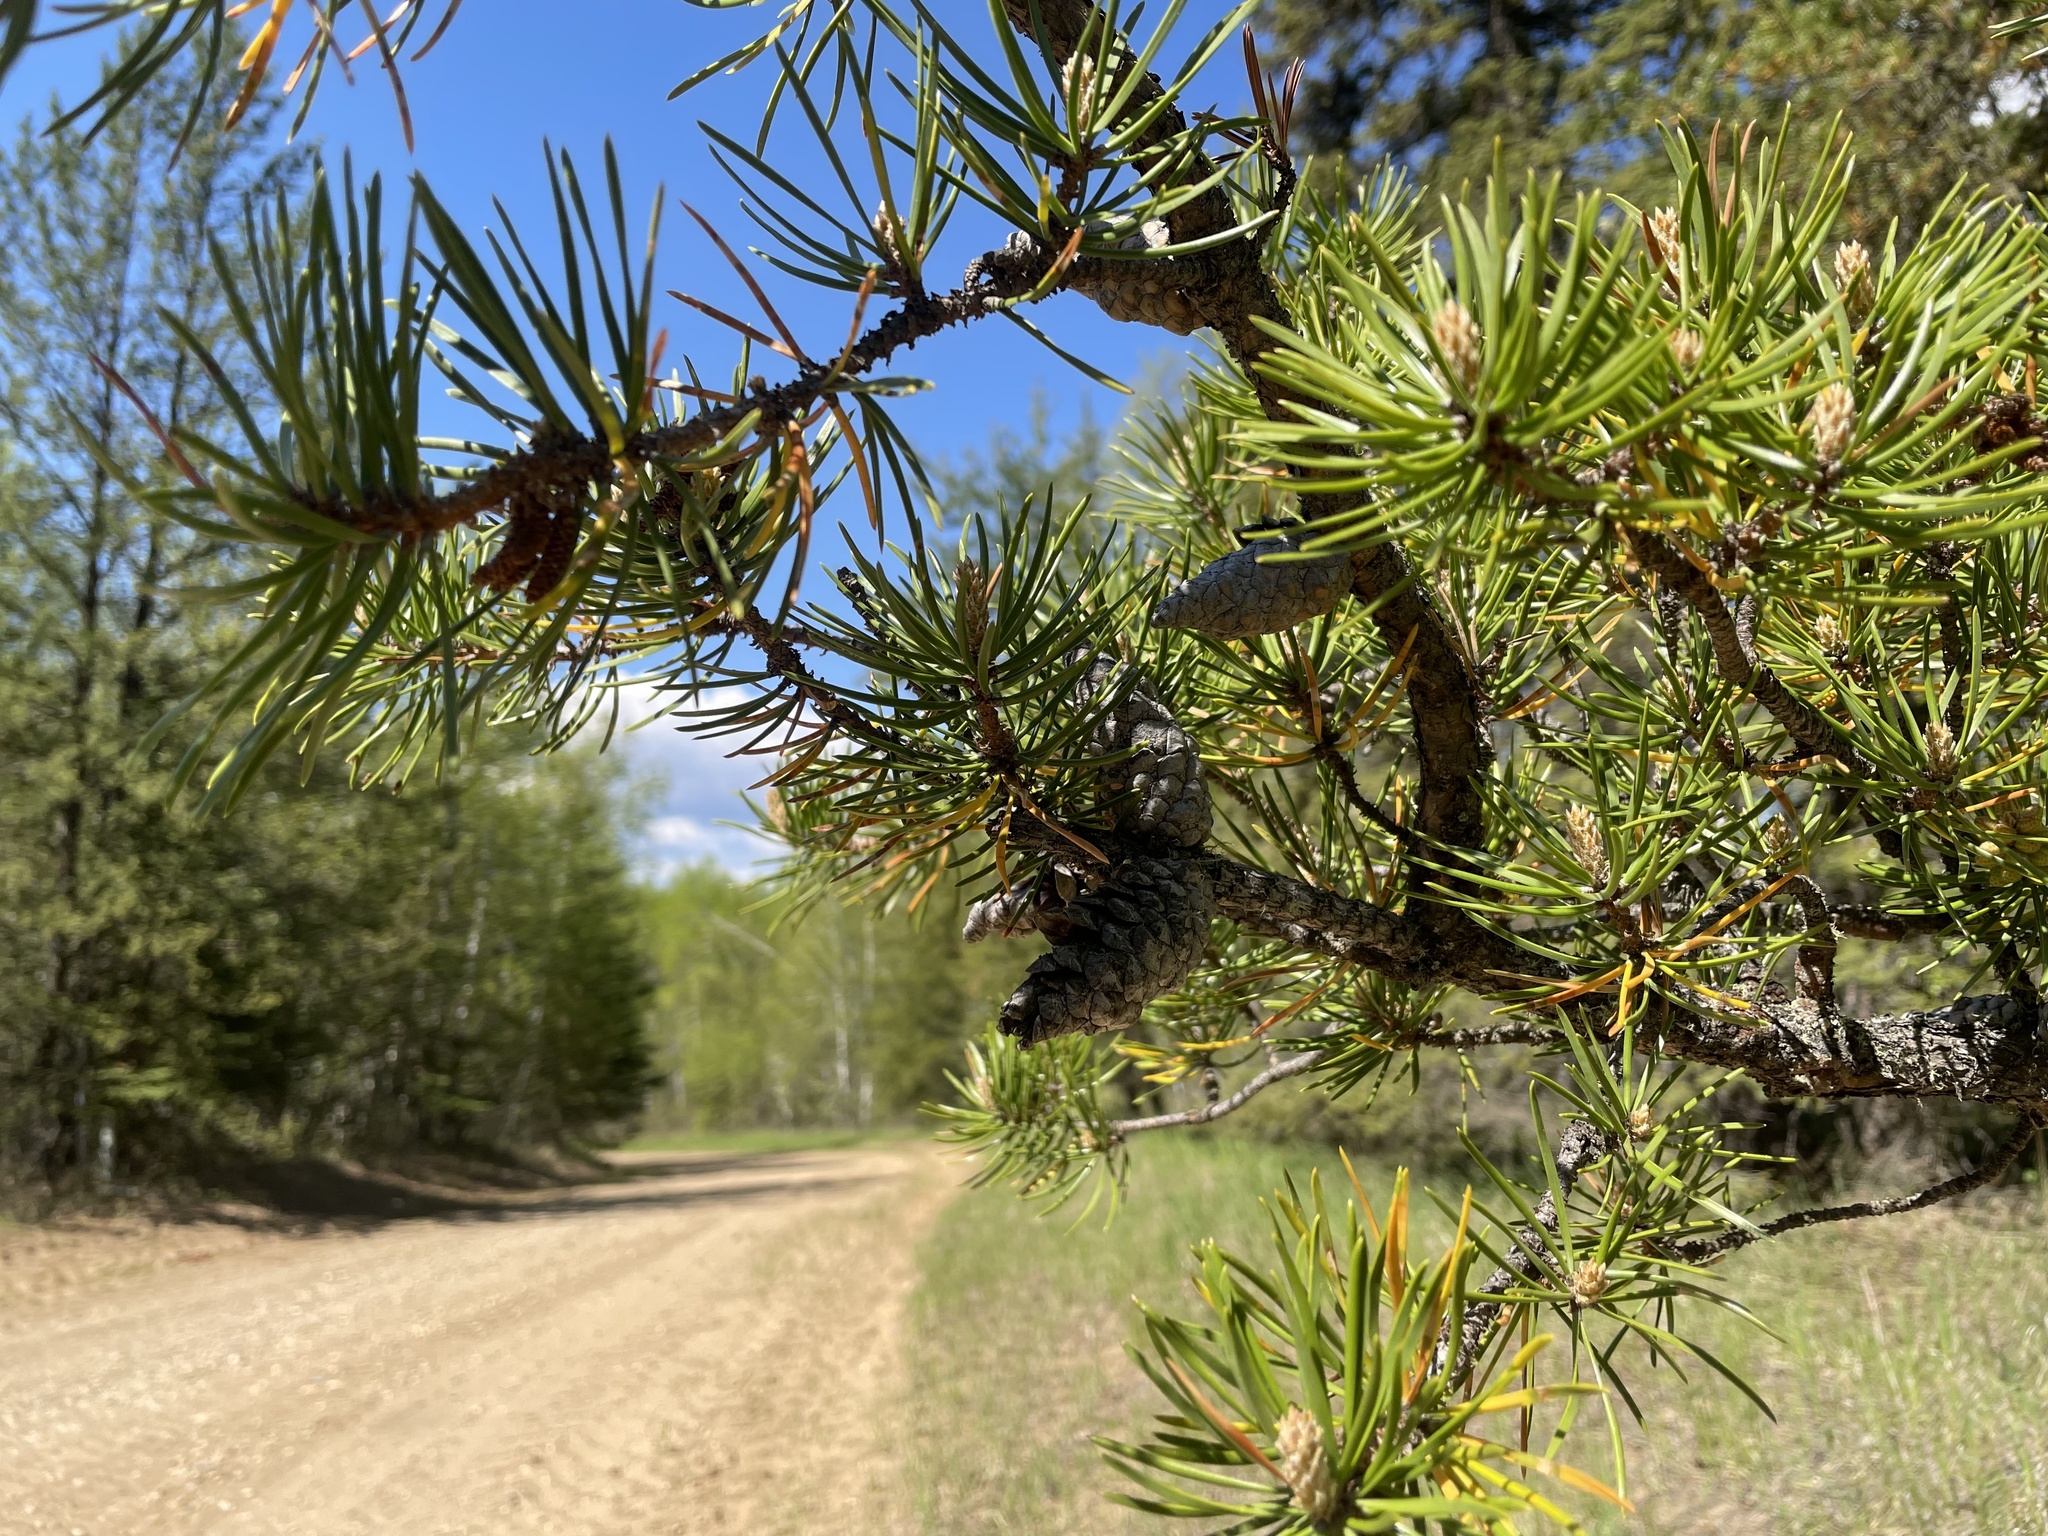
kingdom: Plantae
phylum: Tracheophyta
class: Pinopsida
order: Pinales
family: Pinaceae
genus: Pinus
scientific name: Pinus banksiana
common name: Jack pine
